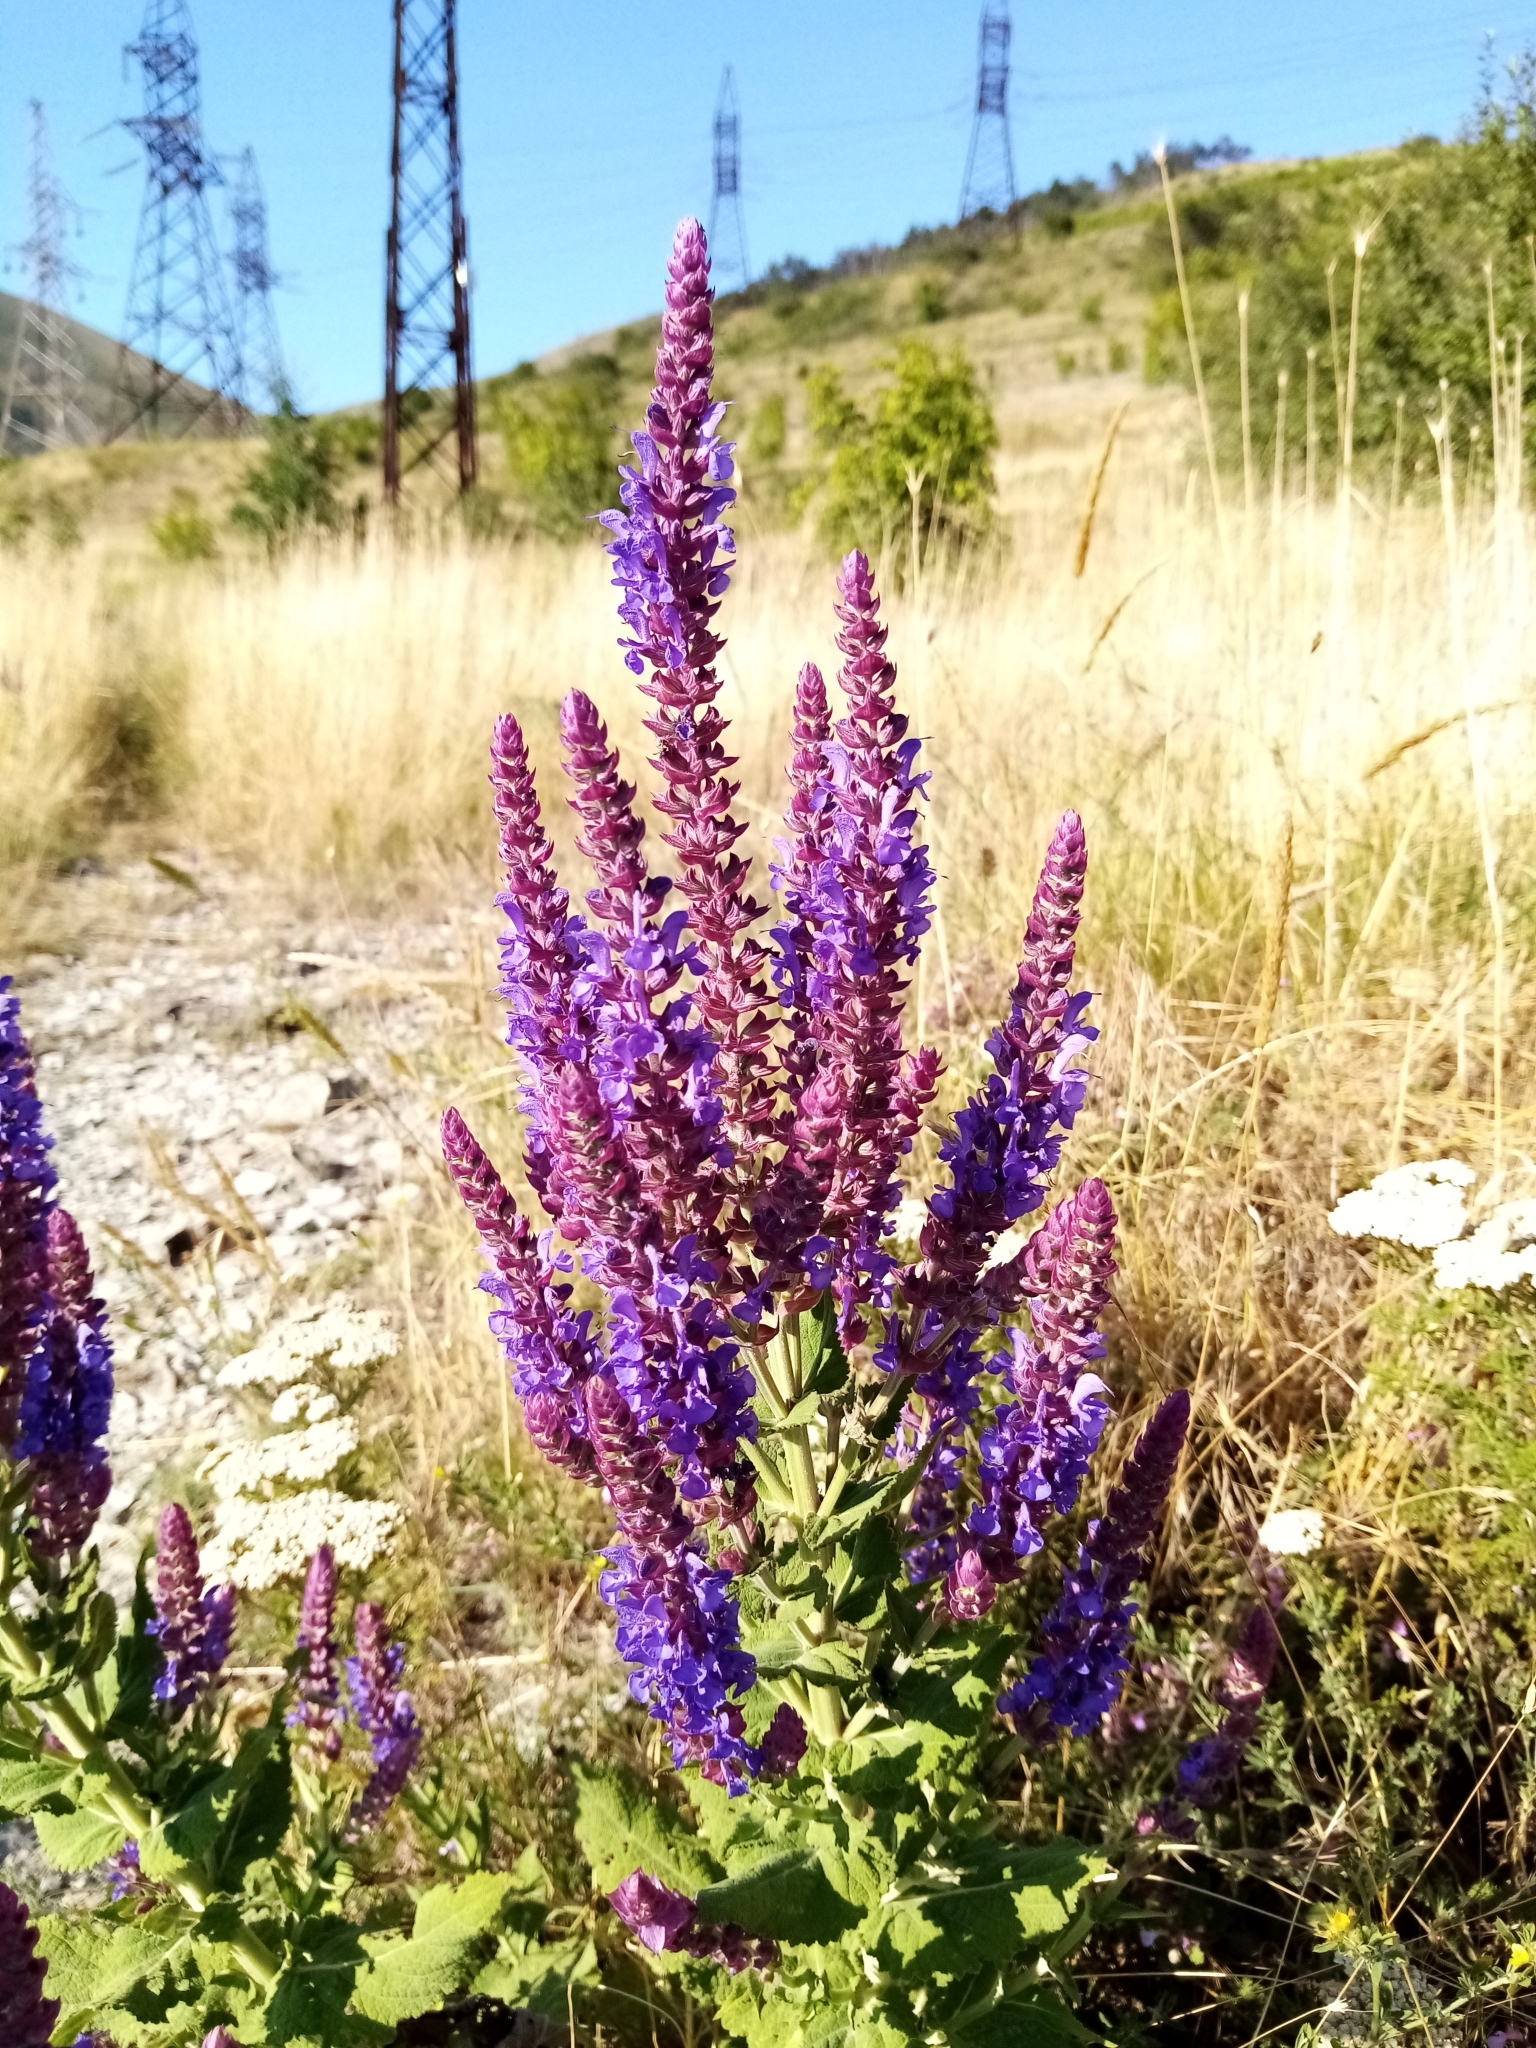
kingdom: Plantae
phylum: Tracheophyta
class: Magnoliopsida
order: Lamiales
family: Lamiaceae
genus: Salvia
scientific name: Salvia nemorosa
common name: Balkan clary
